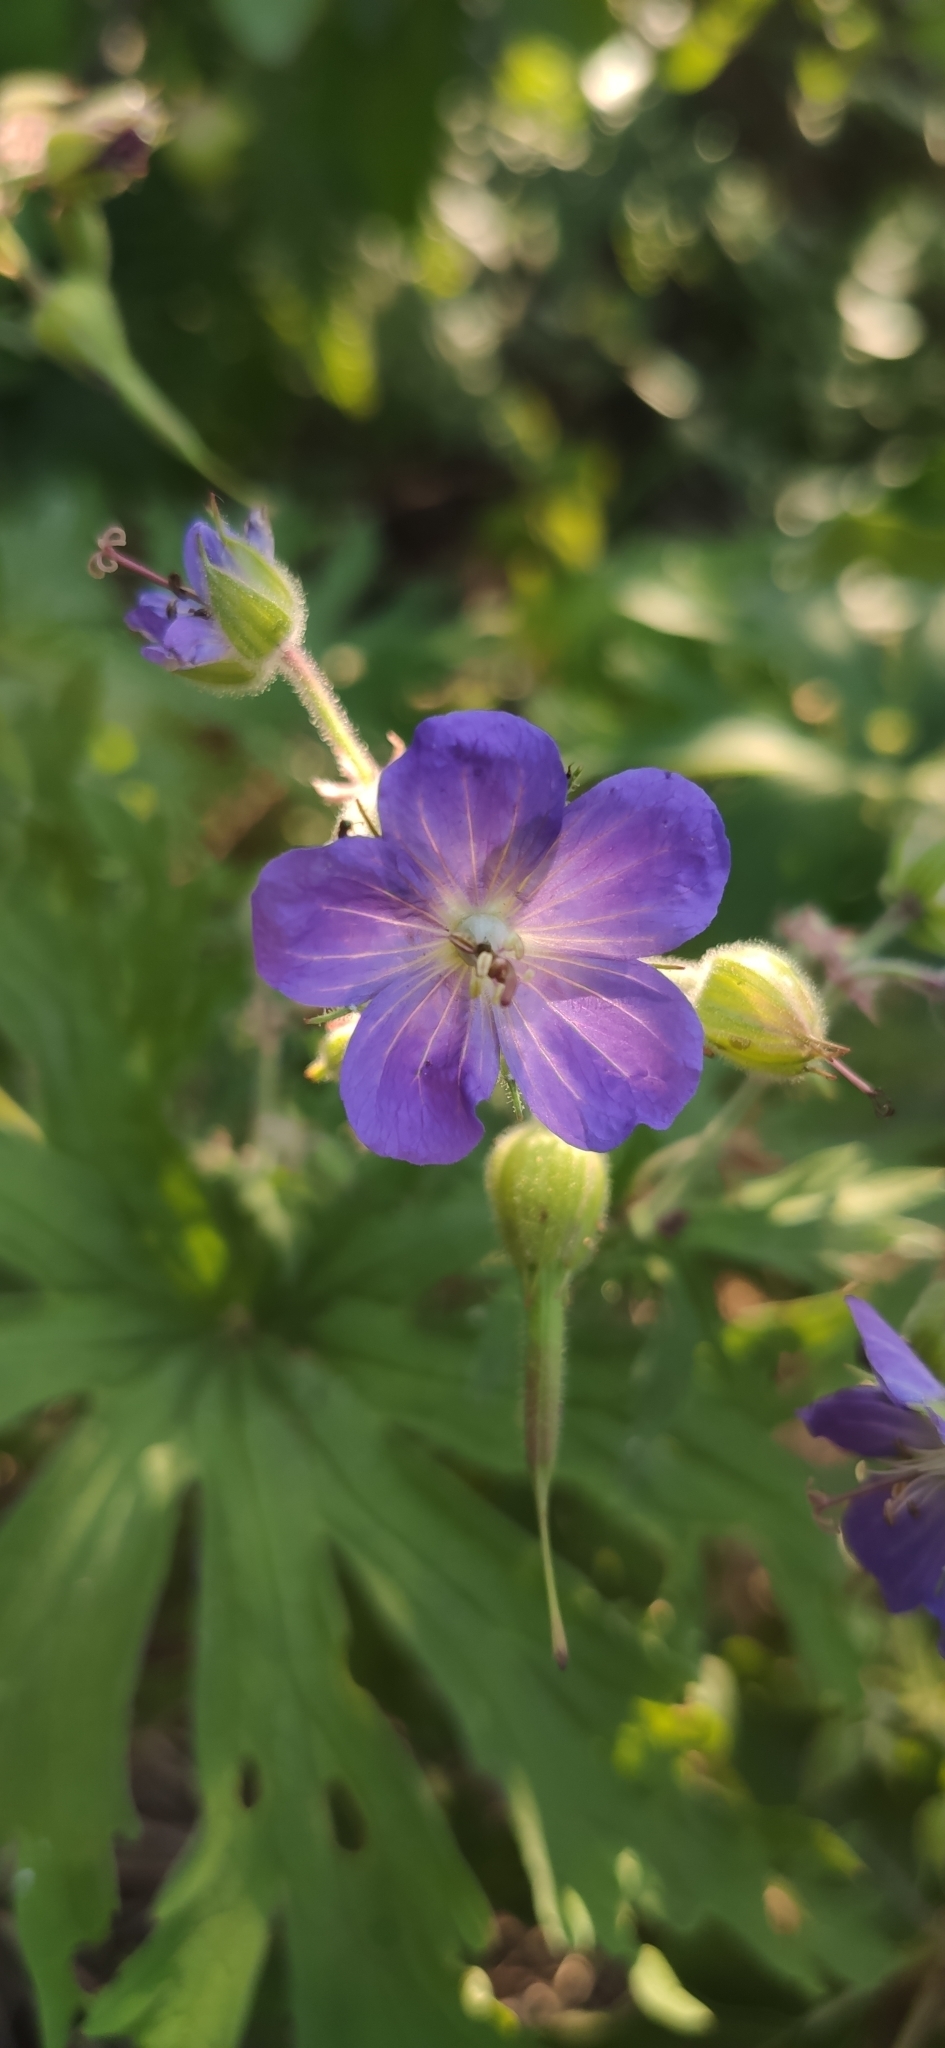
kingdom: Plantae
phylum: Tracheophyta
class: Magnoliopsida
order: Geraniales
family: Geraniaceae
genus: Geranium
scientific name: Geranium pratense
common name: Meadow crane's-bill
